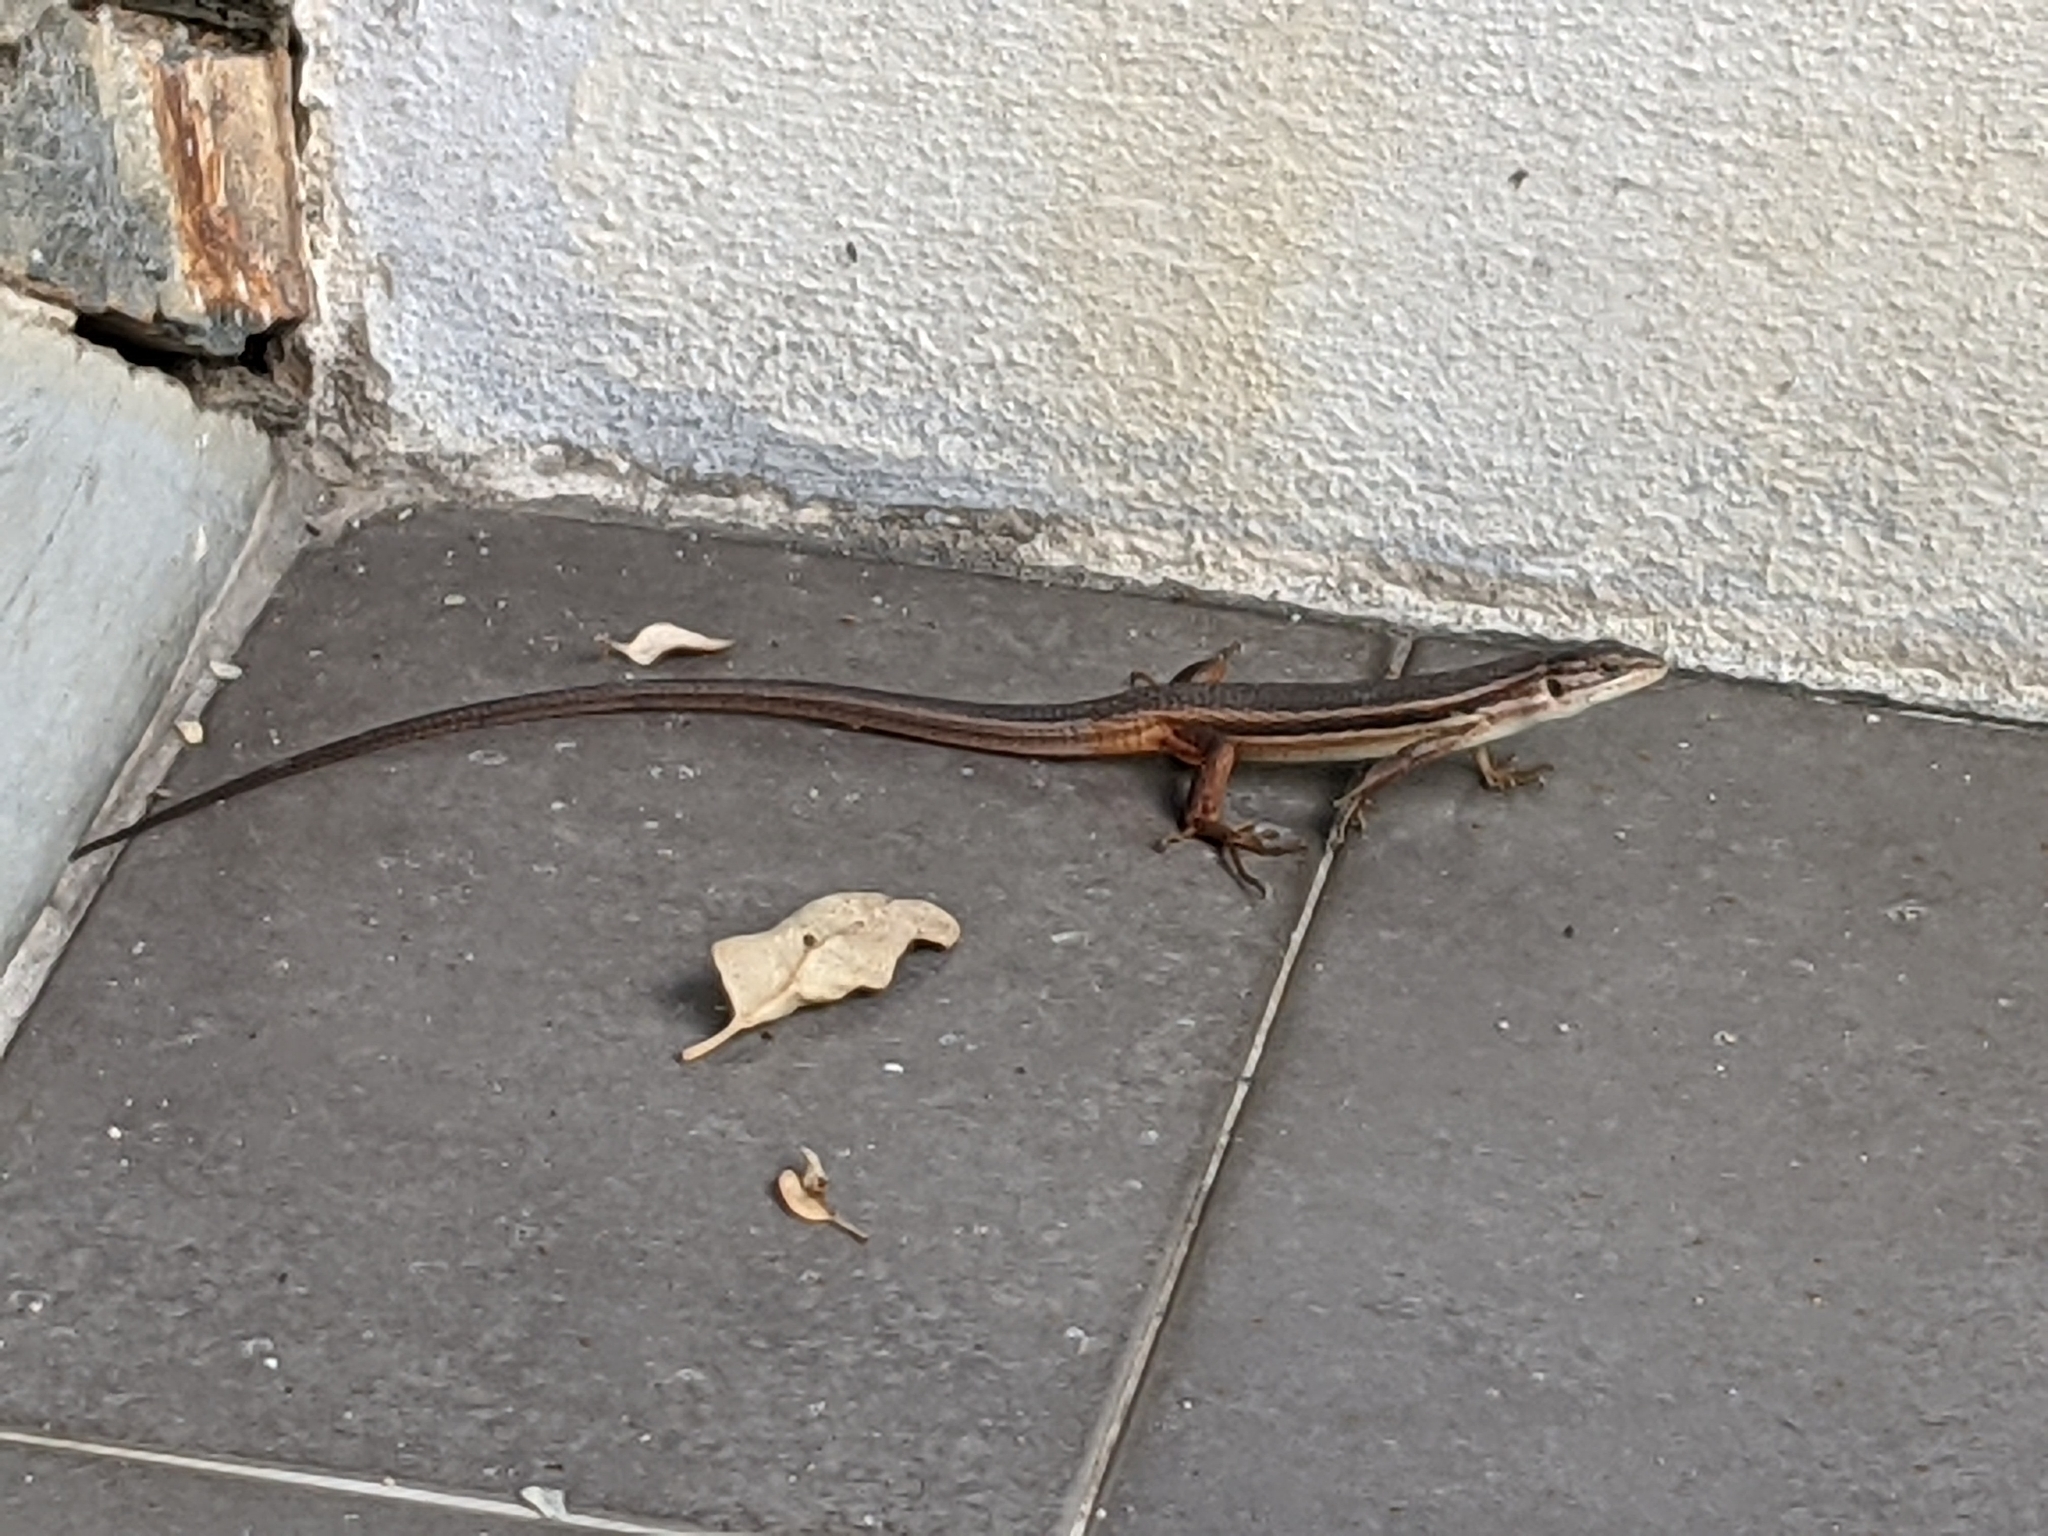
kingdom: Animalia
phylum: Chordata
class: Squamata
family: Lacertidae
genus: Psammodromus
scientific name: Psammodromus algirus
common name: Algerian psammodromus
